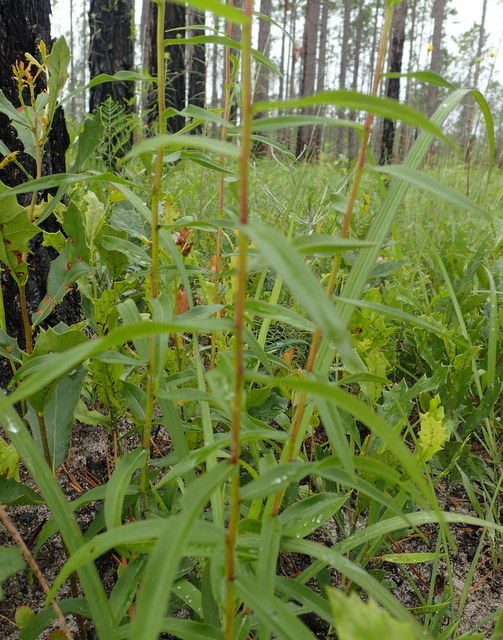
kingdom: Plantae
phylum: Tracheophyta
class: Magnoliopsida
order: Asterales
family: Asteraceae
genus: Solidago
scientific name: Solidago odora
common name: Anise-scented goldenrod
